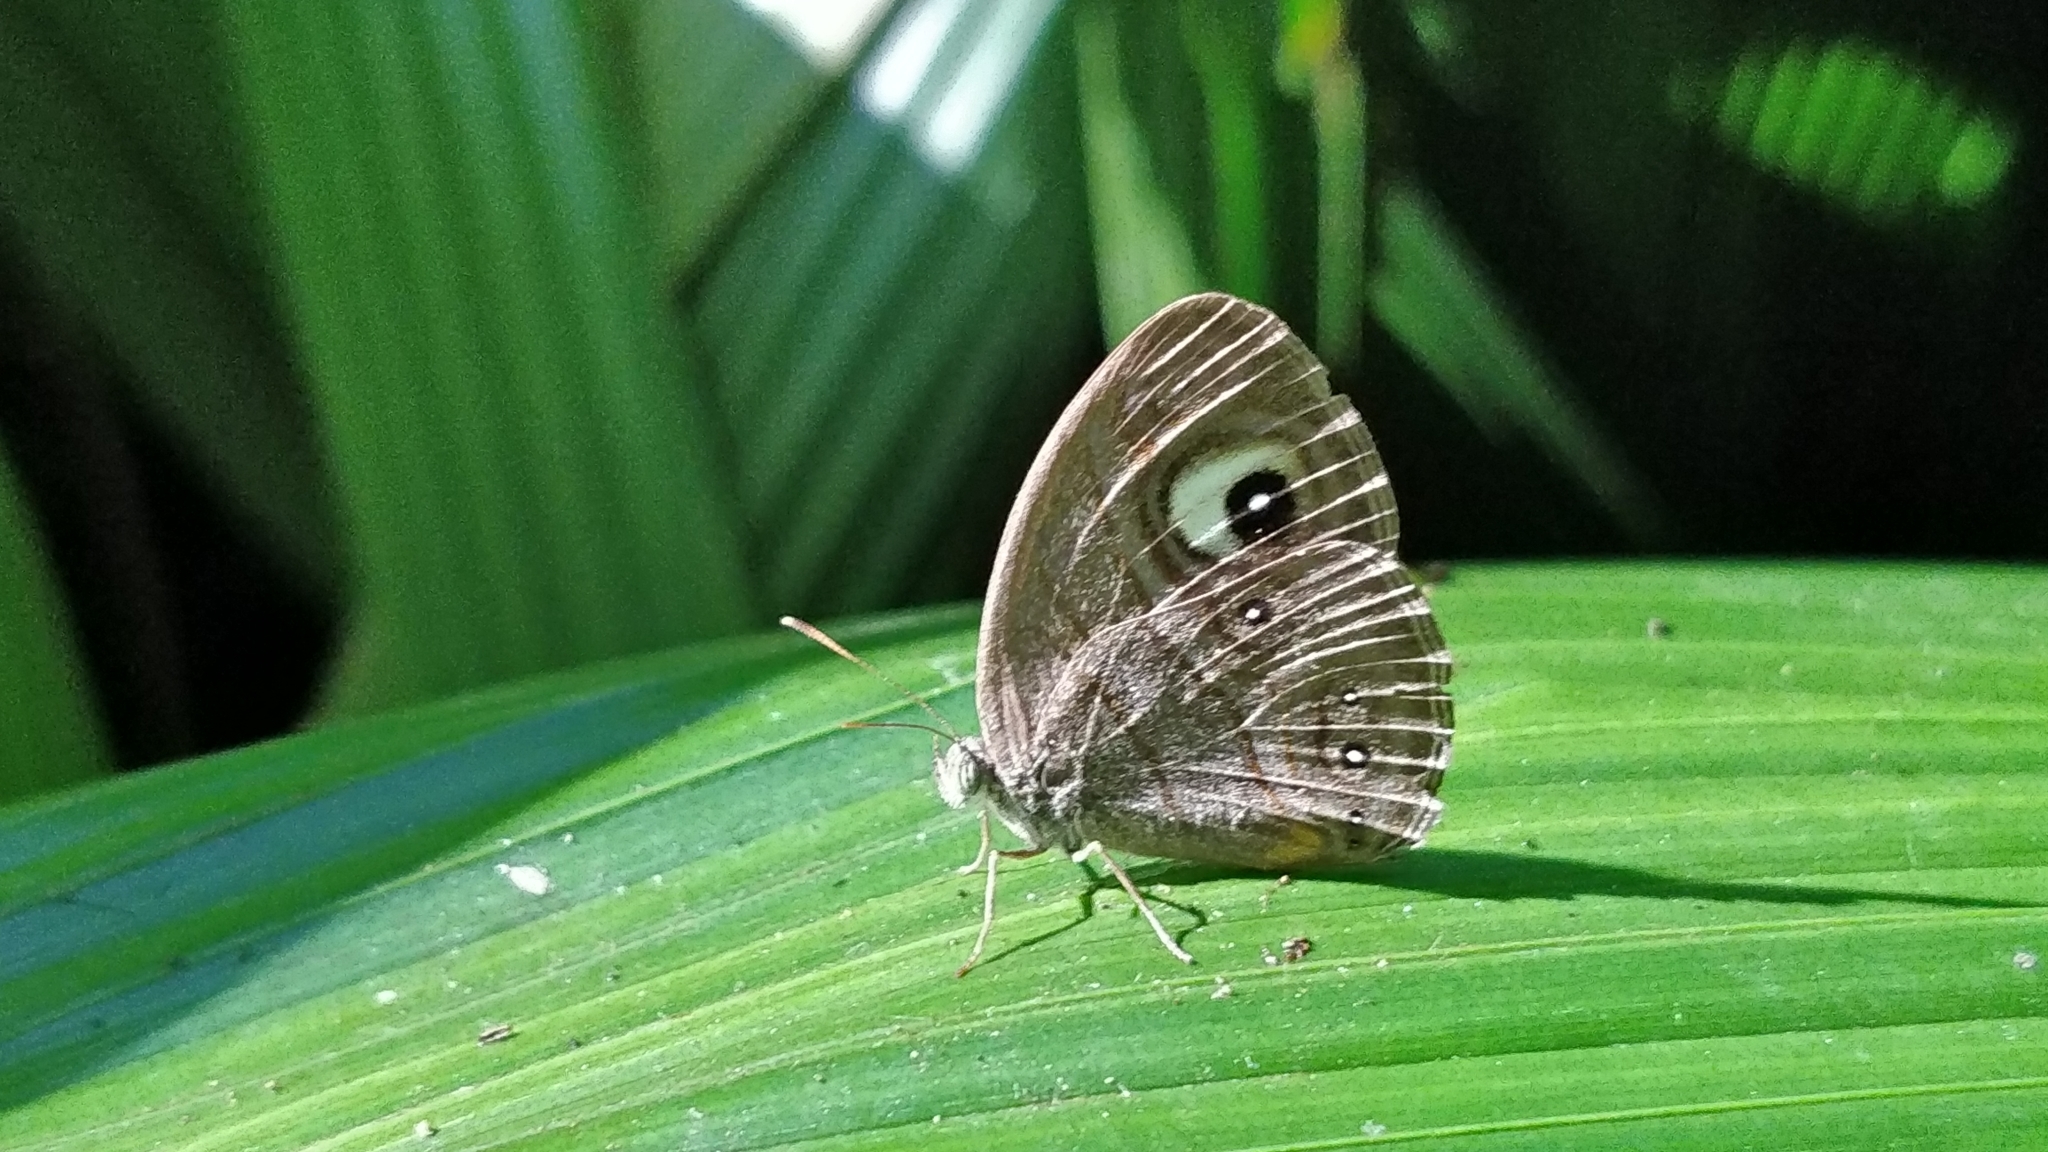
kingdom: Animalia
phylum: Arthropoda
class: Insecta
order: Lepidoptera
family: Nymphalidae
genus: Mycalesis
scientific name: Mycalesis patnia
